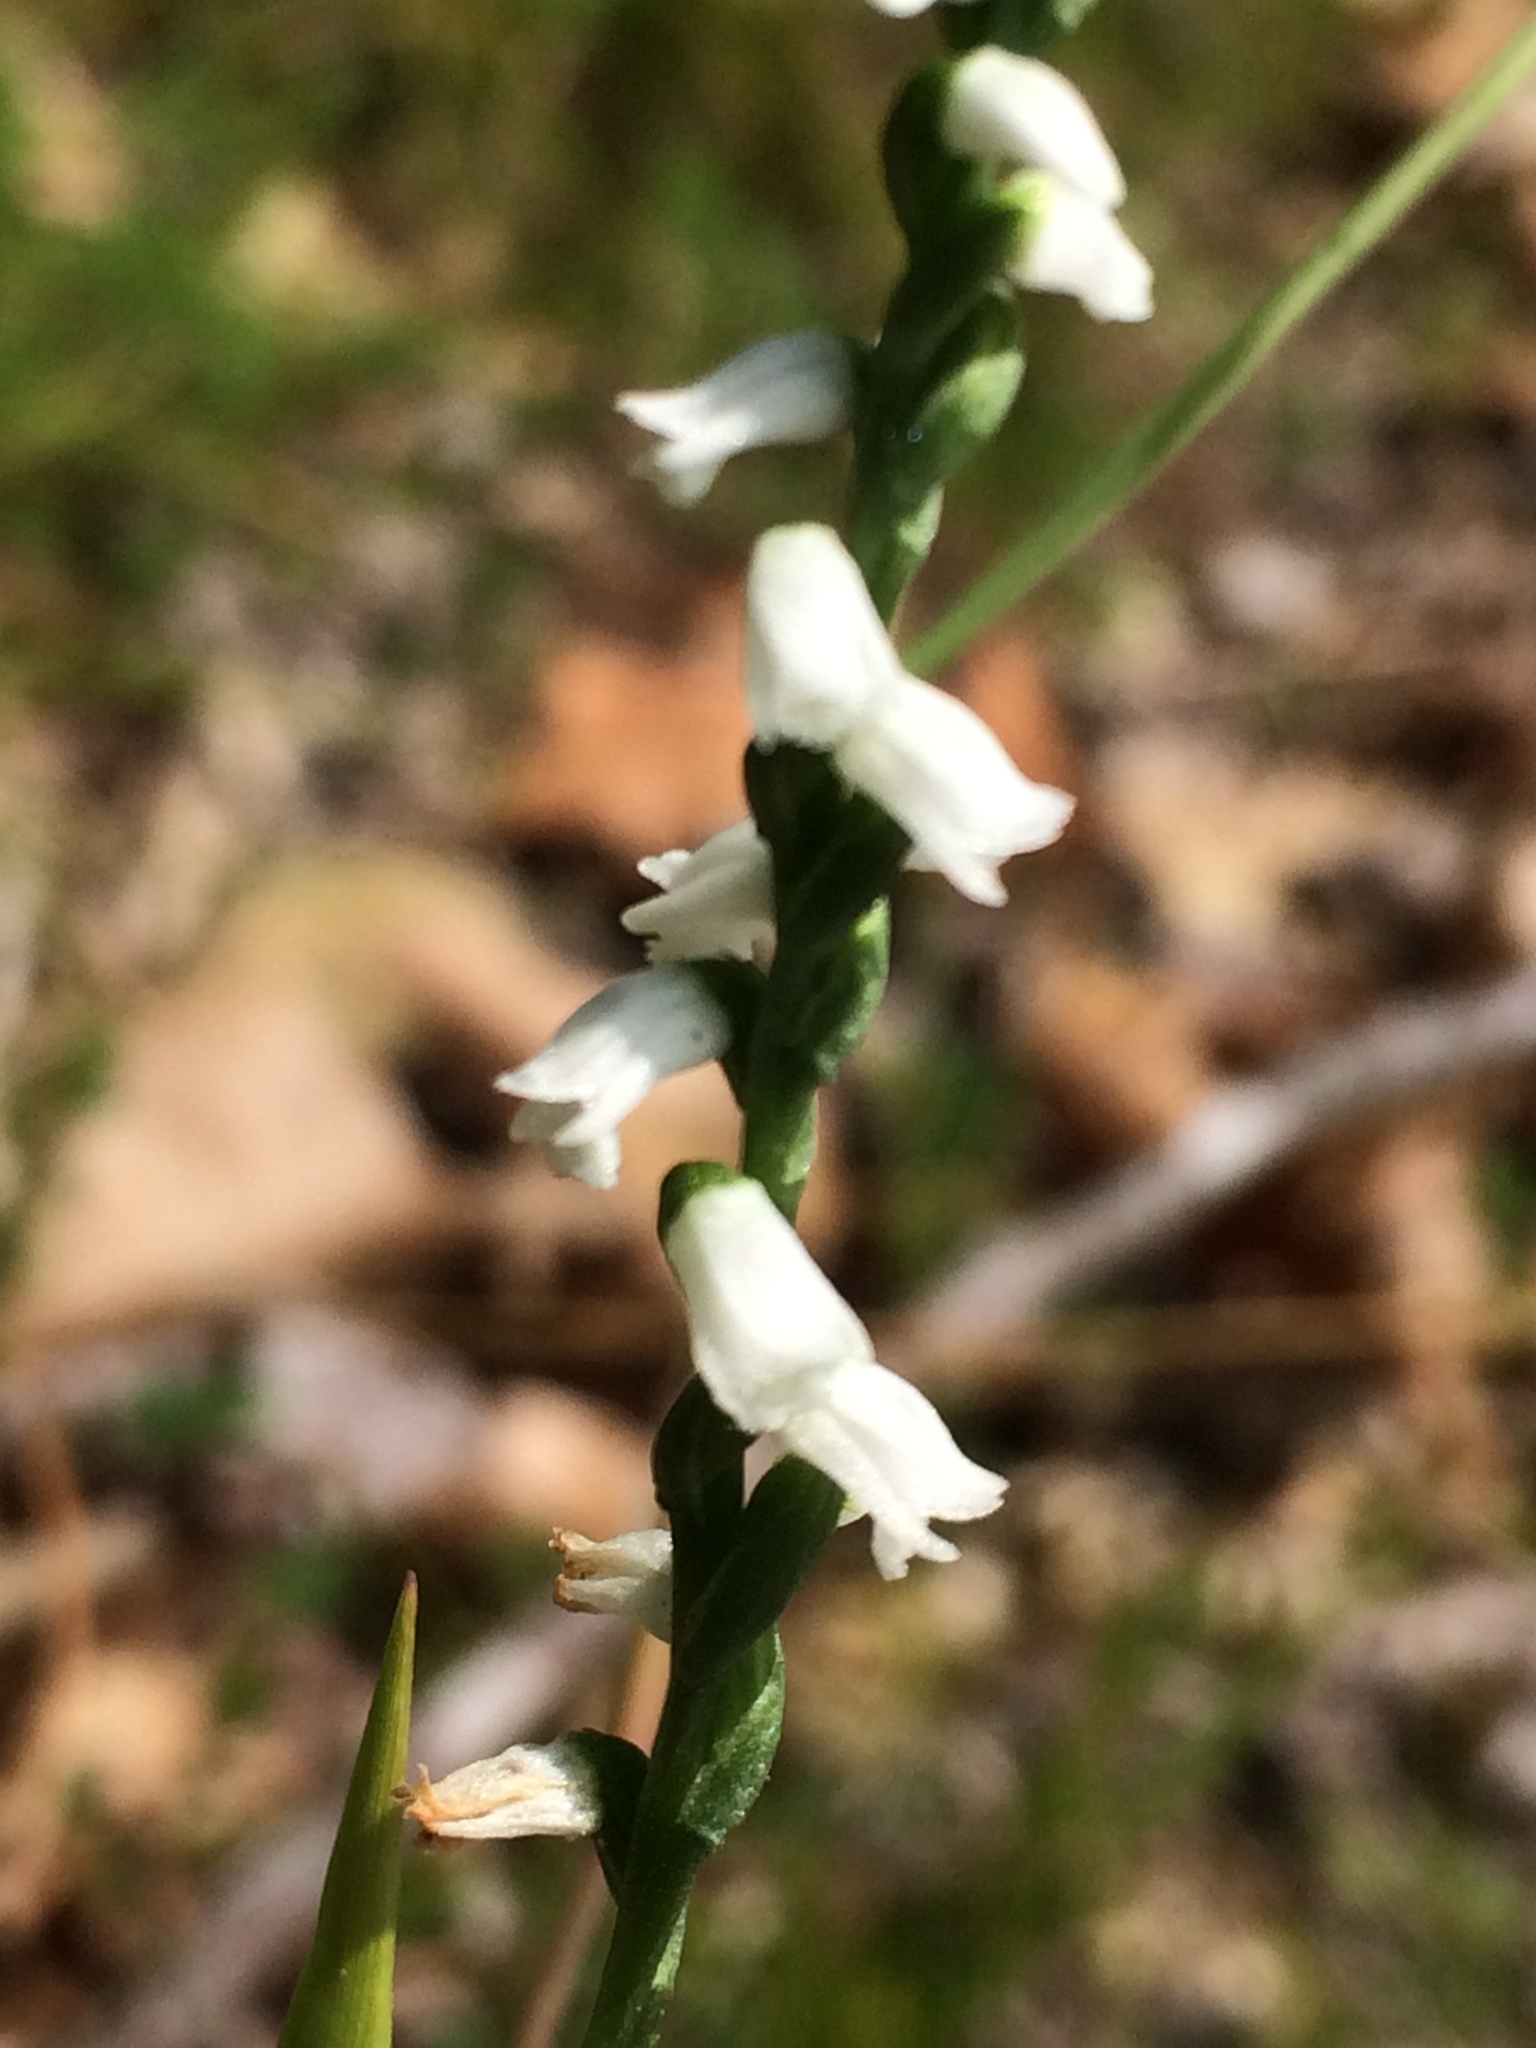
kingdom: Plantae
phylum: Tracheophyta
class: Liliopsida
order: Asparagales
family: Orchidaceae
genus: Spiranthes
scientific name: Spiranthes tuberosa
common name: Little ladies'-tresses
